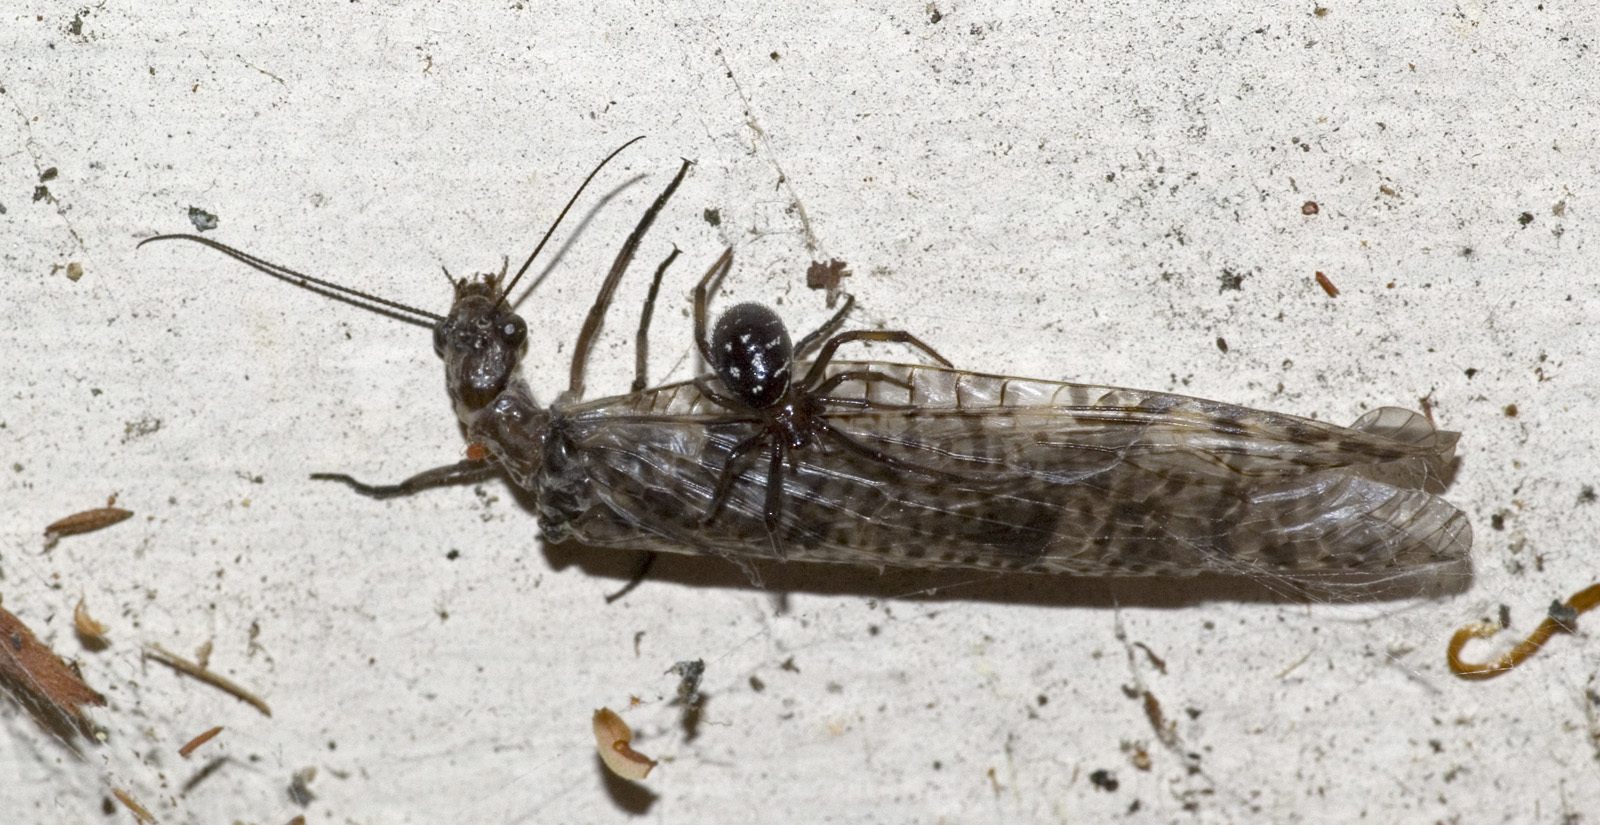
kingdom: Animalia
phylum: Arthropoda
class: Arachnida
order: Araneae
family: Theridiidae
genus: Steatoda
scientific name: Steatoda capensis
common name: Cobweb weaver
